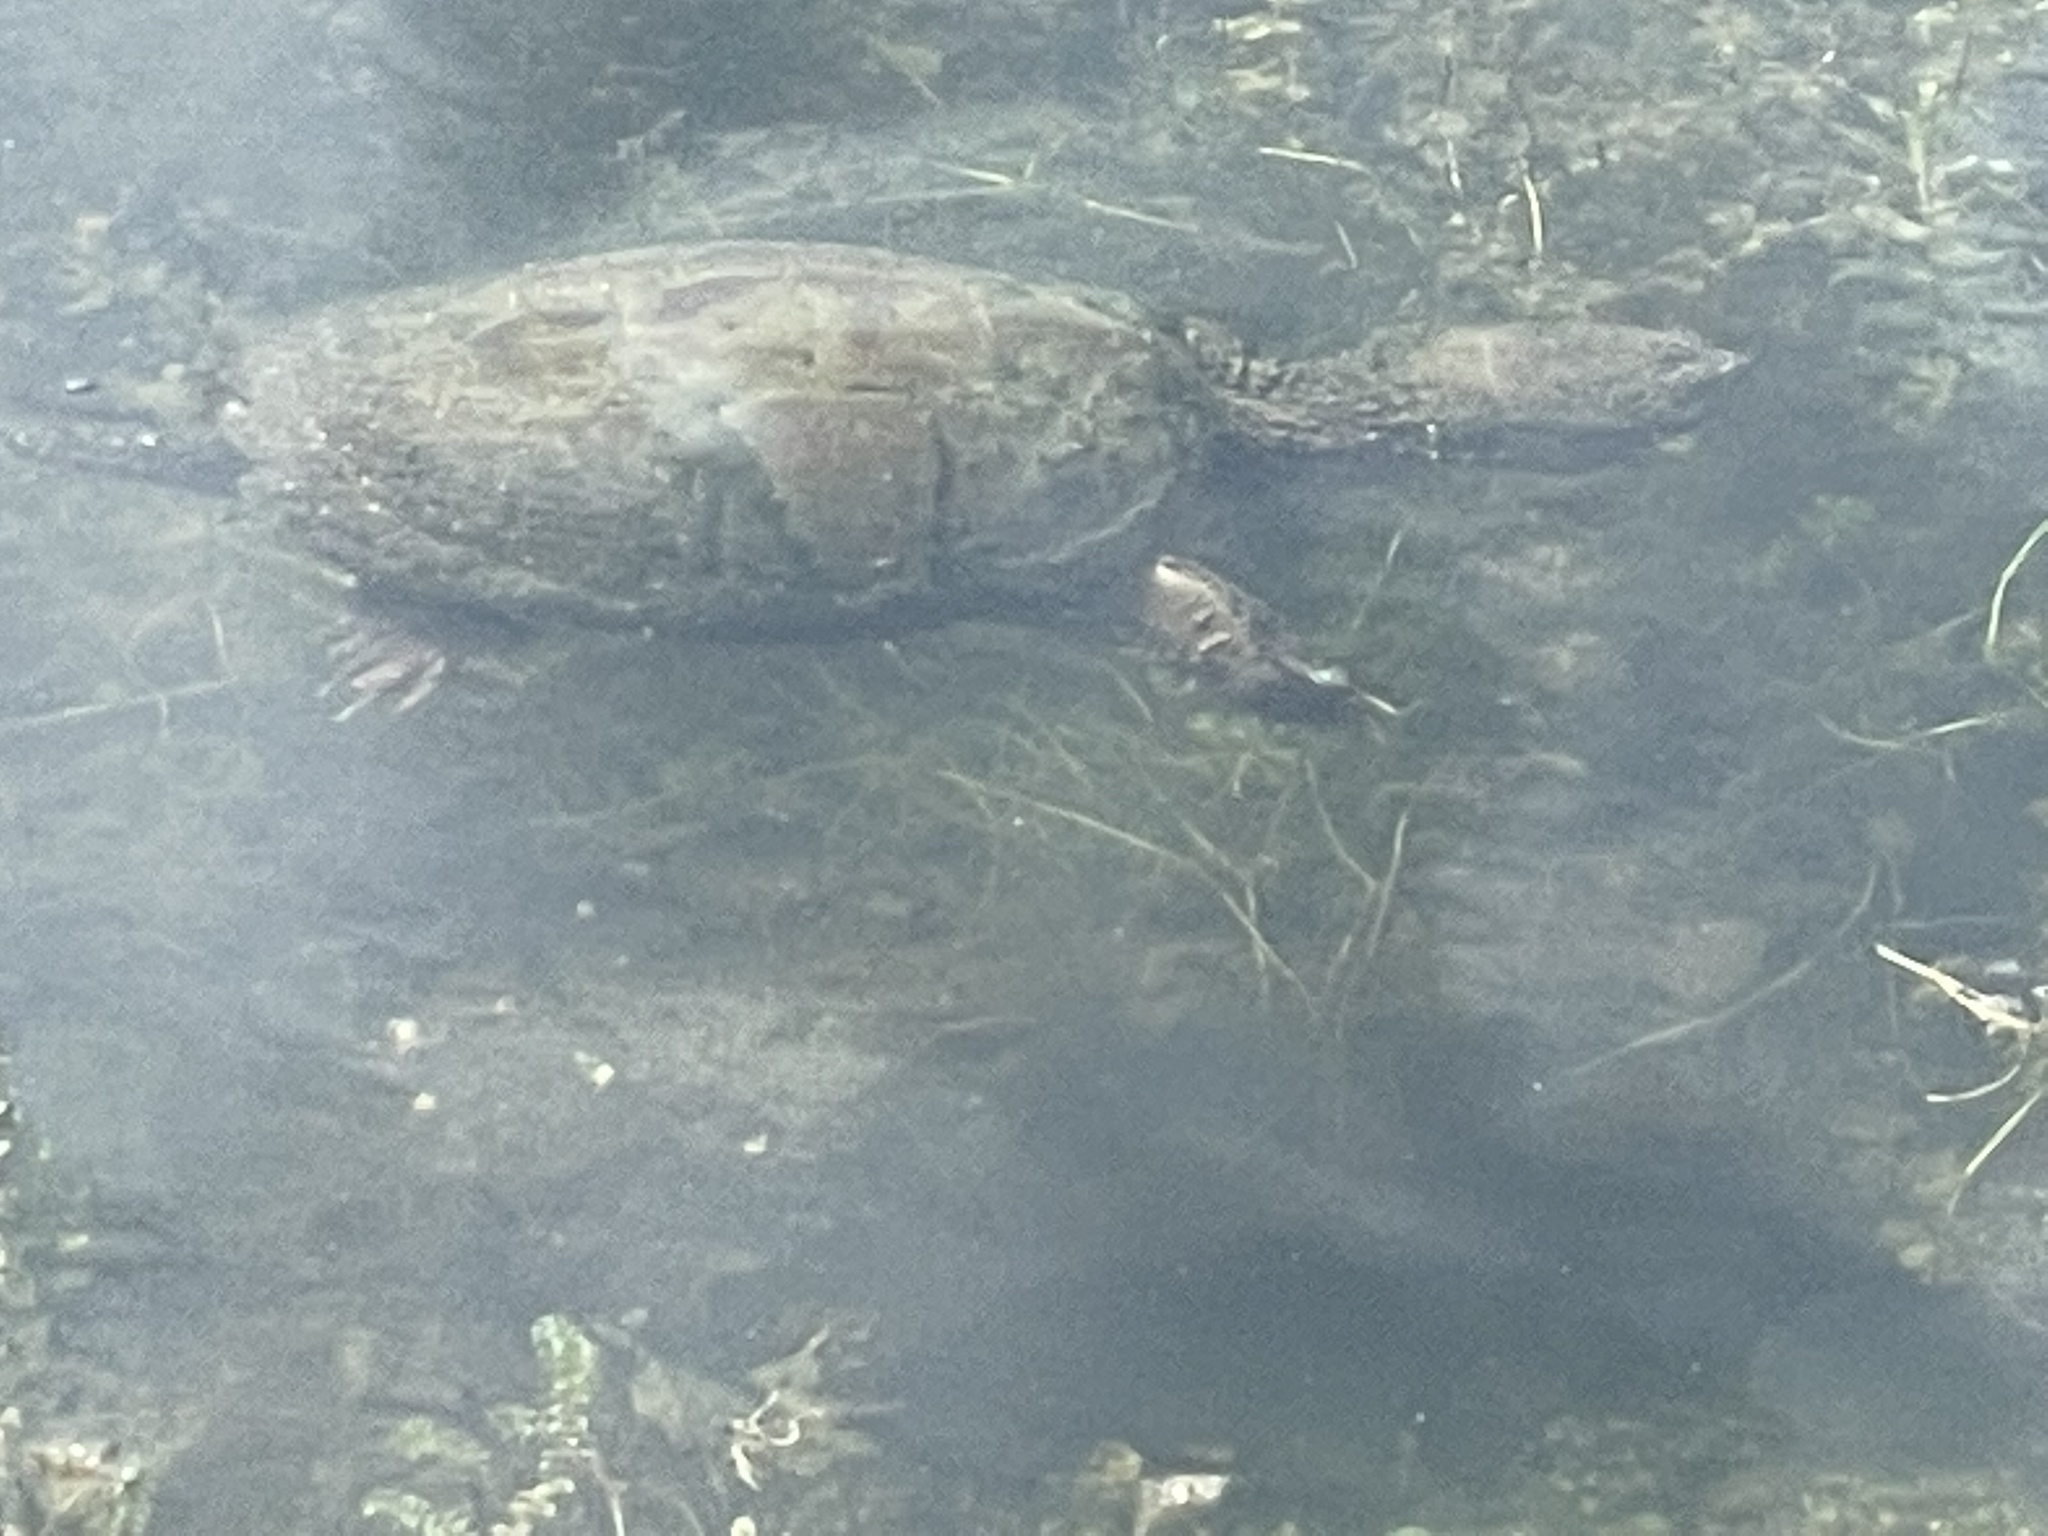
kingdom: Animalia
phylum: Chordata
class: Testudines
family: Chelydridae
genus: Chelydra
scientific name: Chelydra serpentina
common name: Common snapping turtle
